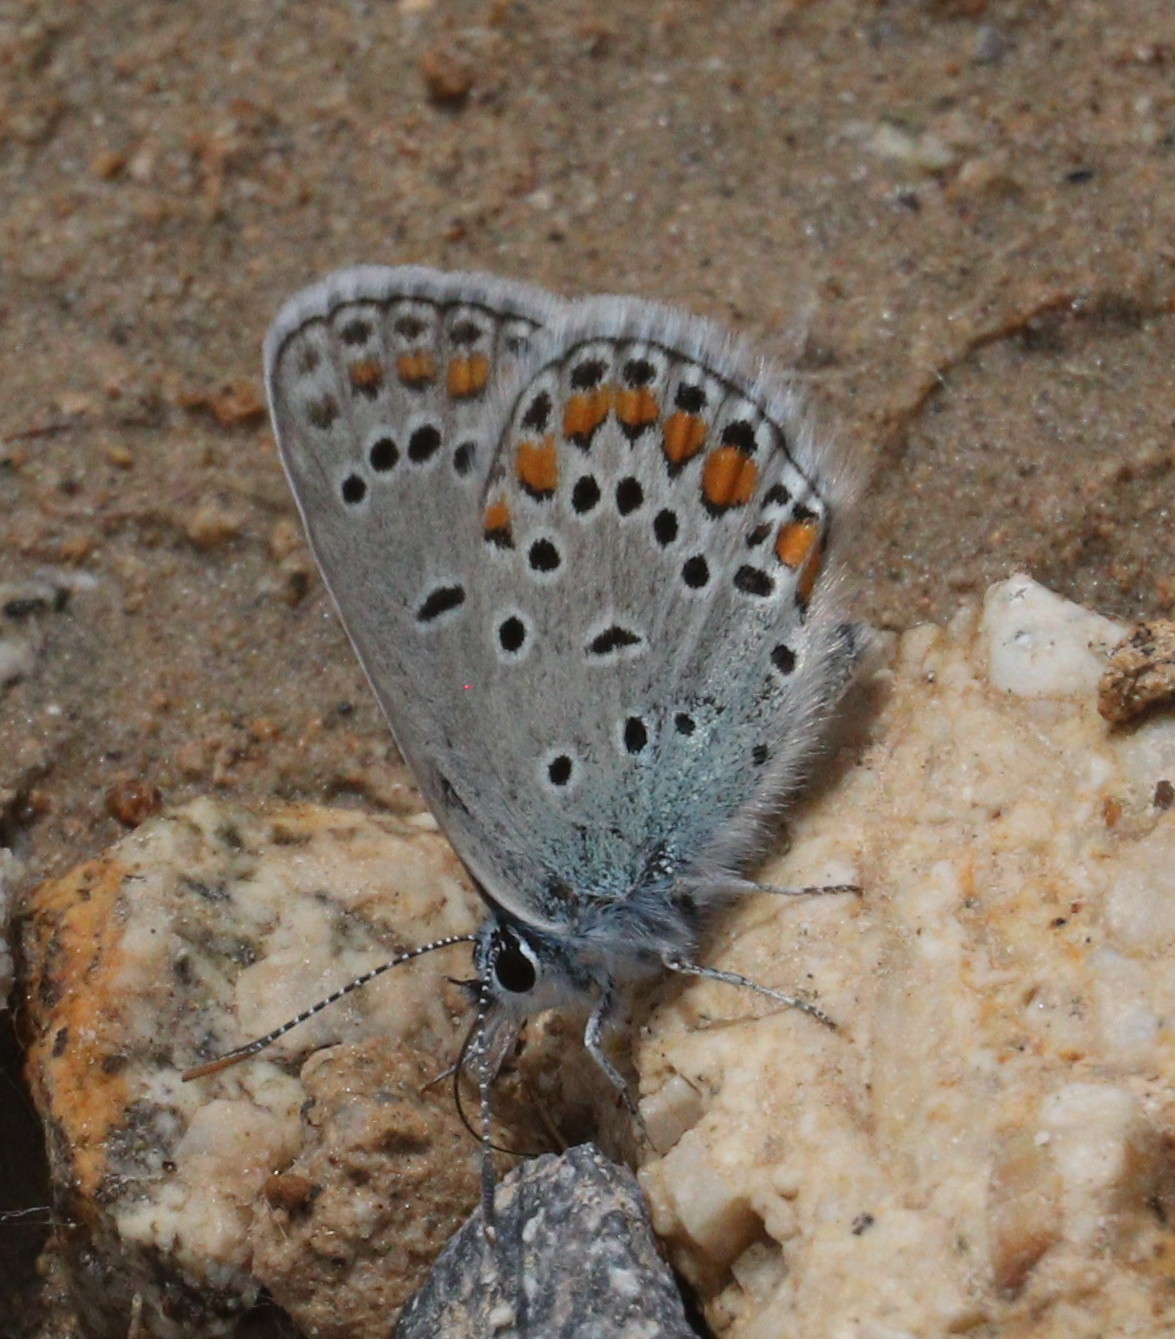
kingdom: Animalia
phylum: Arthropoda
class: Insecta
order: Lepidoptera
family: Lycaenidae
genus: Kretania
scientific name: Kretania modica
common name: Anatolian zephyr blue
